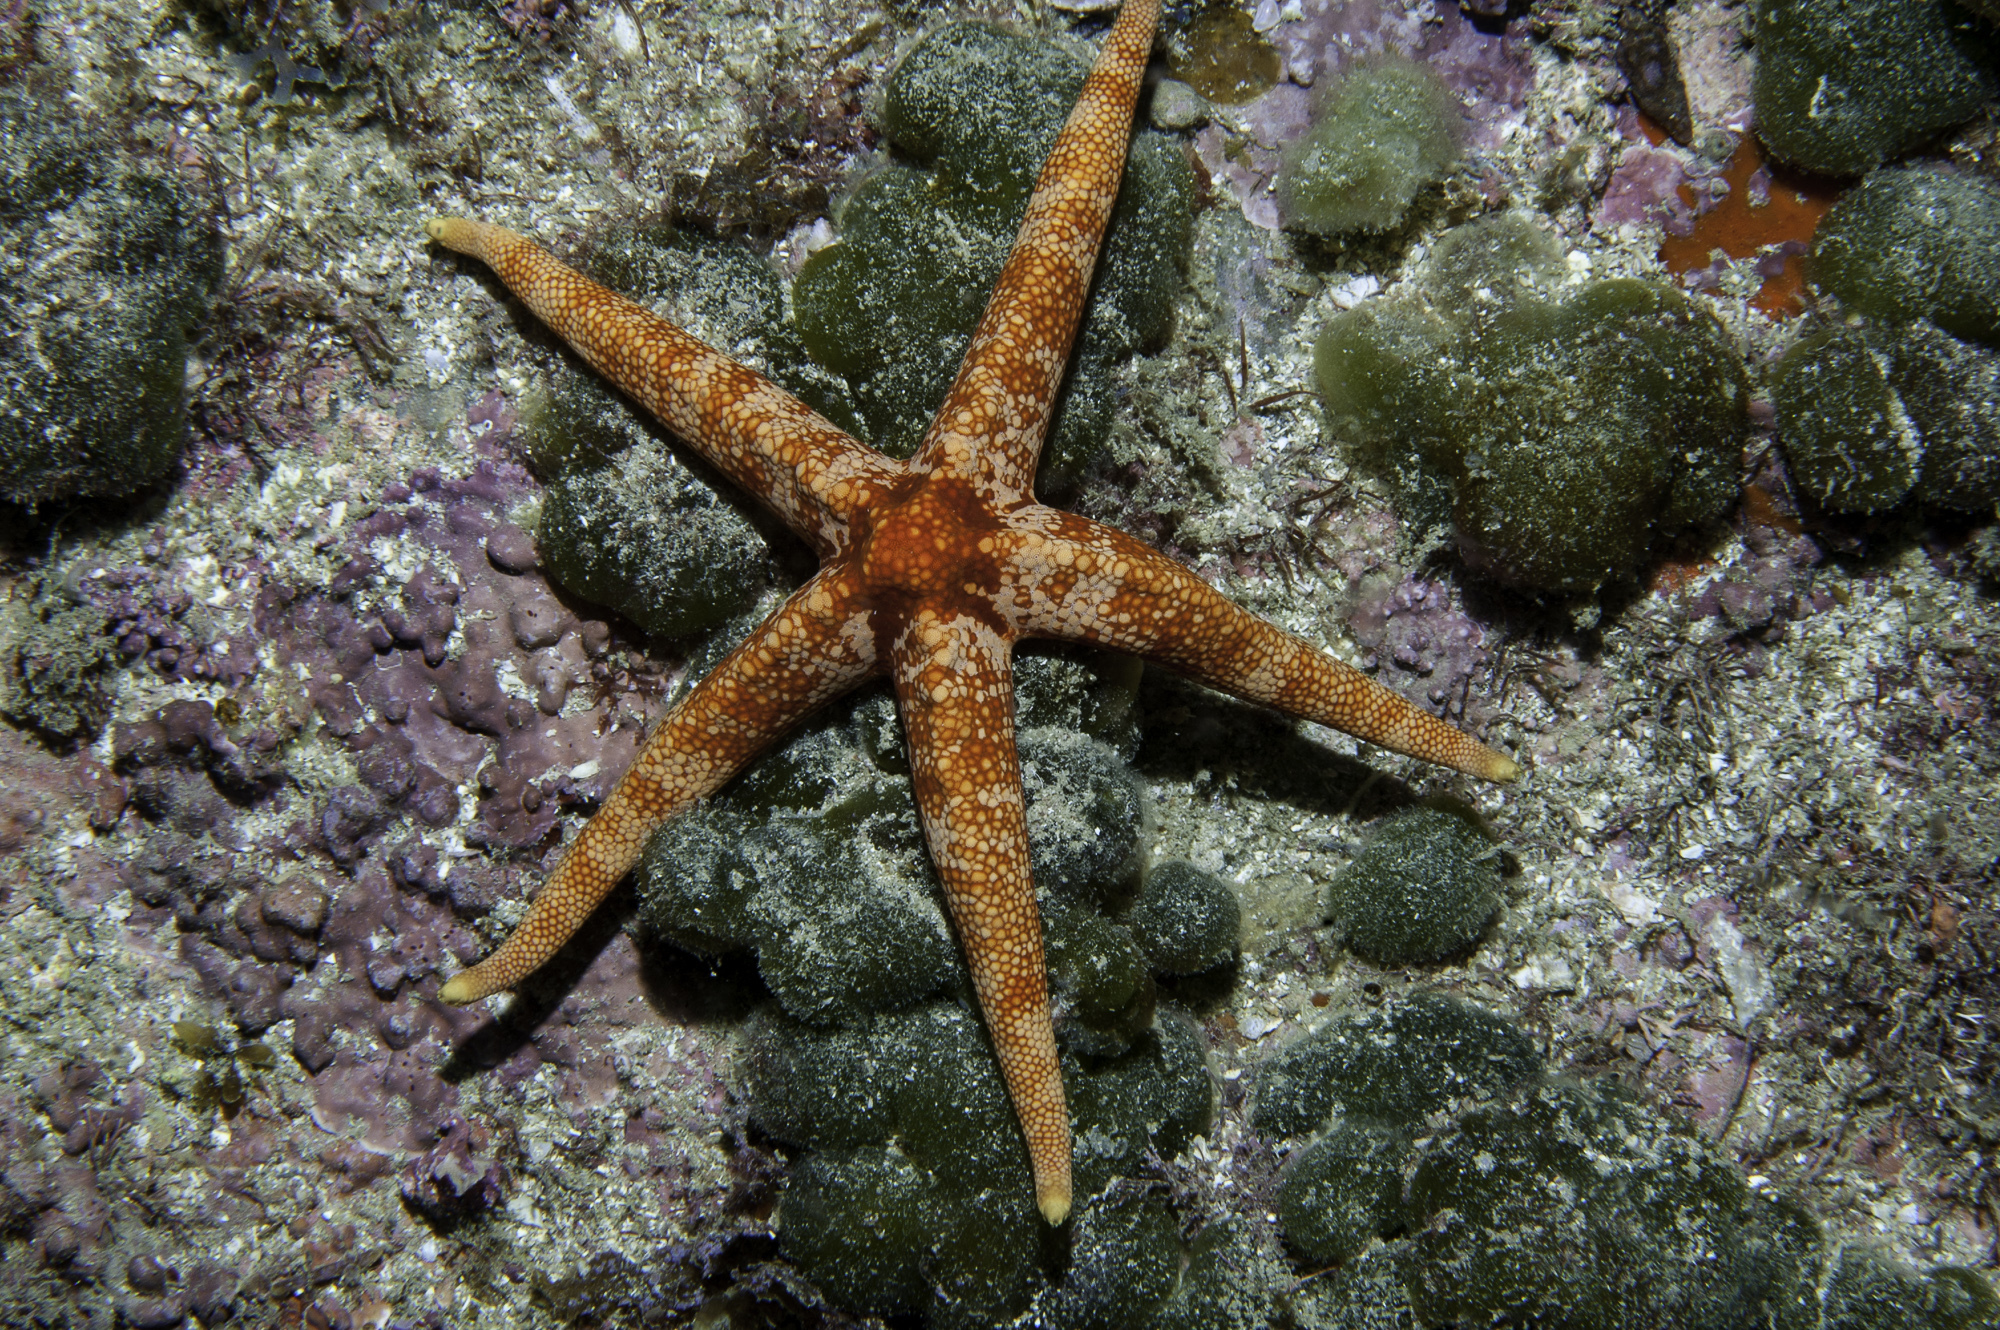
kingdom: Animalia
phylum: Echinodermata
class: Asteroidea
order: Valvatida
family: Ophidiasteridae
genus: Narcissia
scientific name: Narcissia trigonaria
